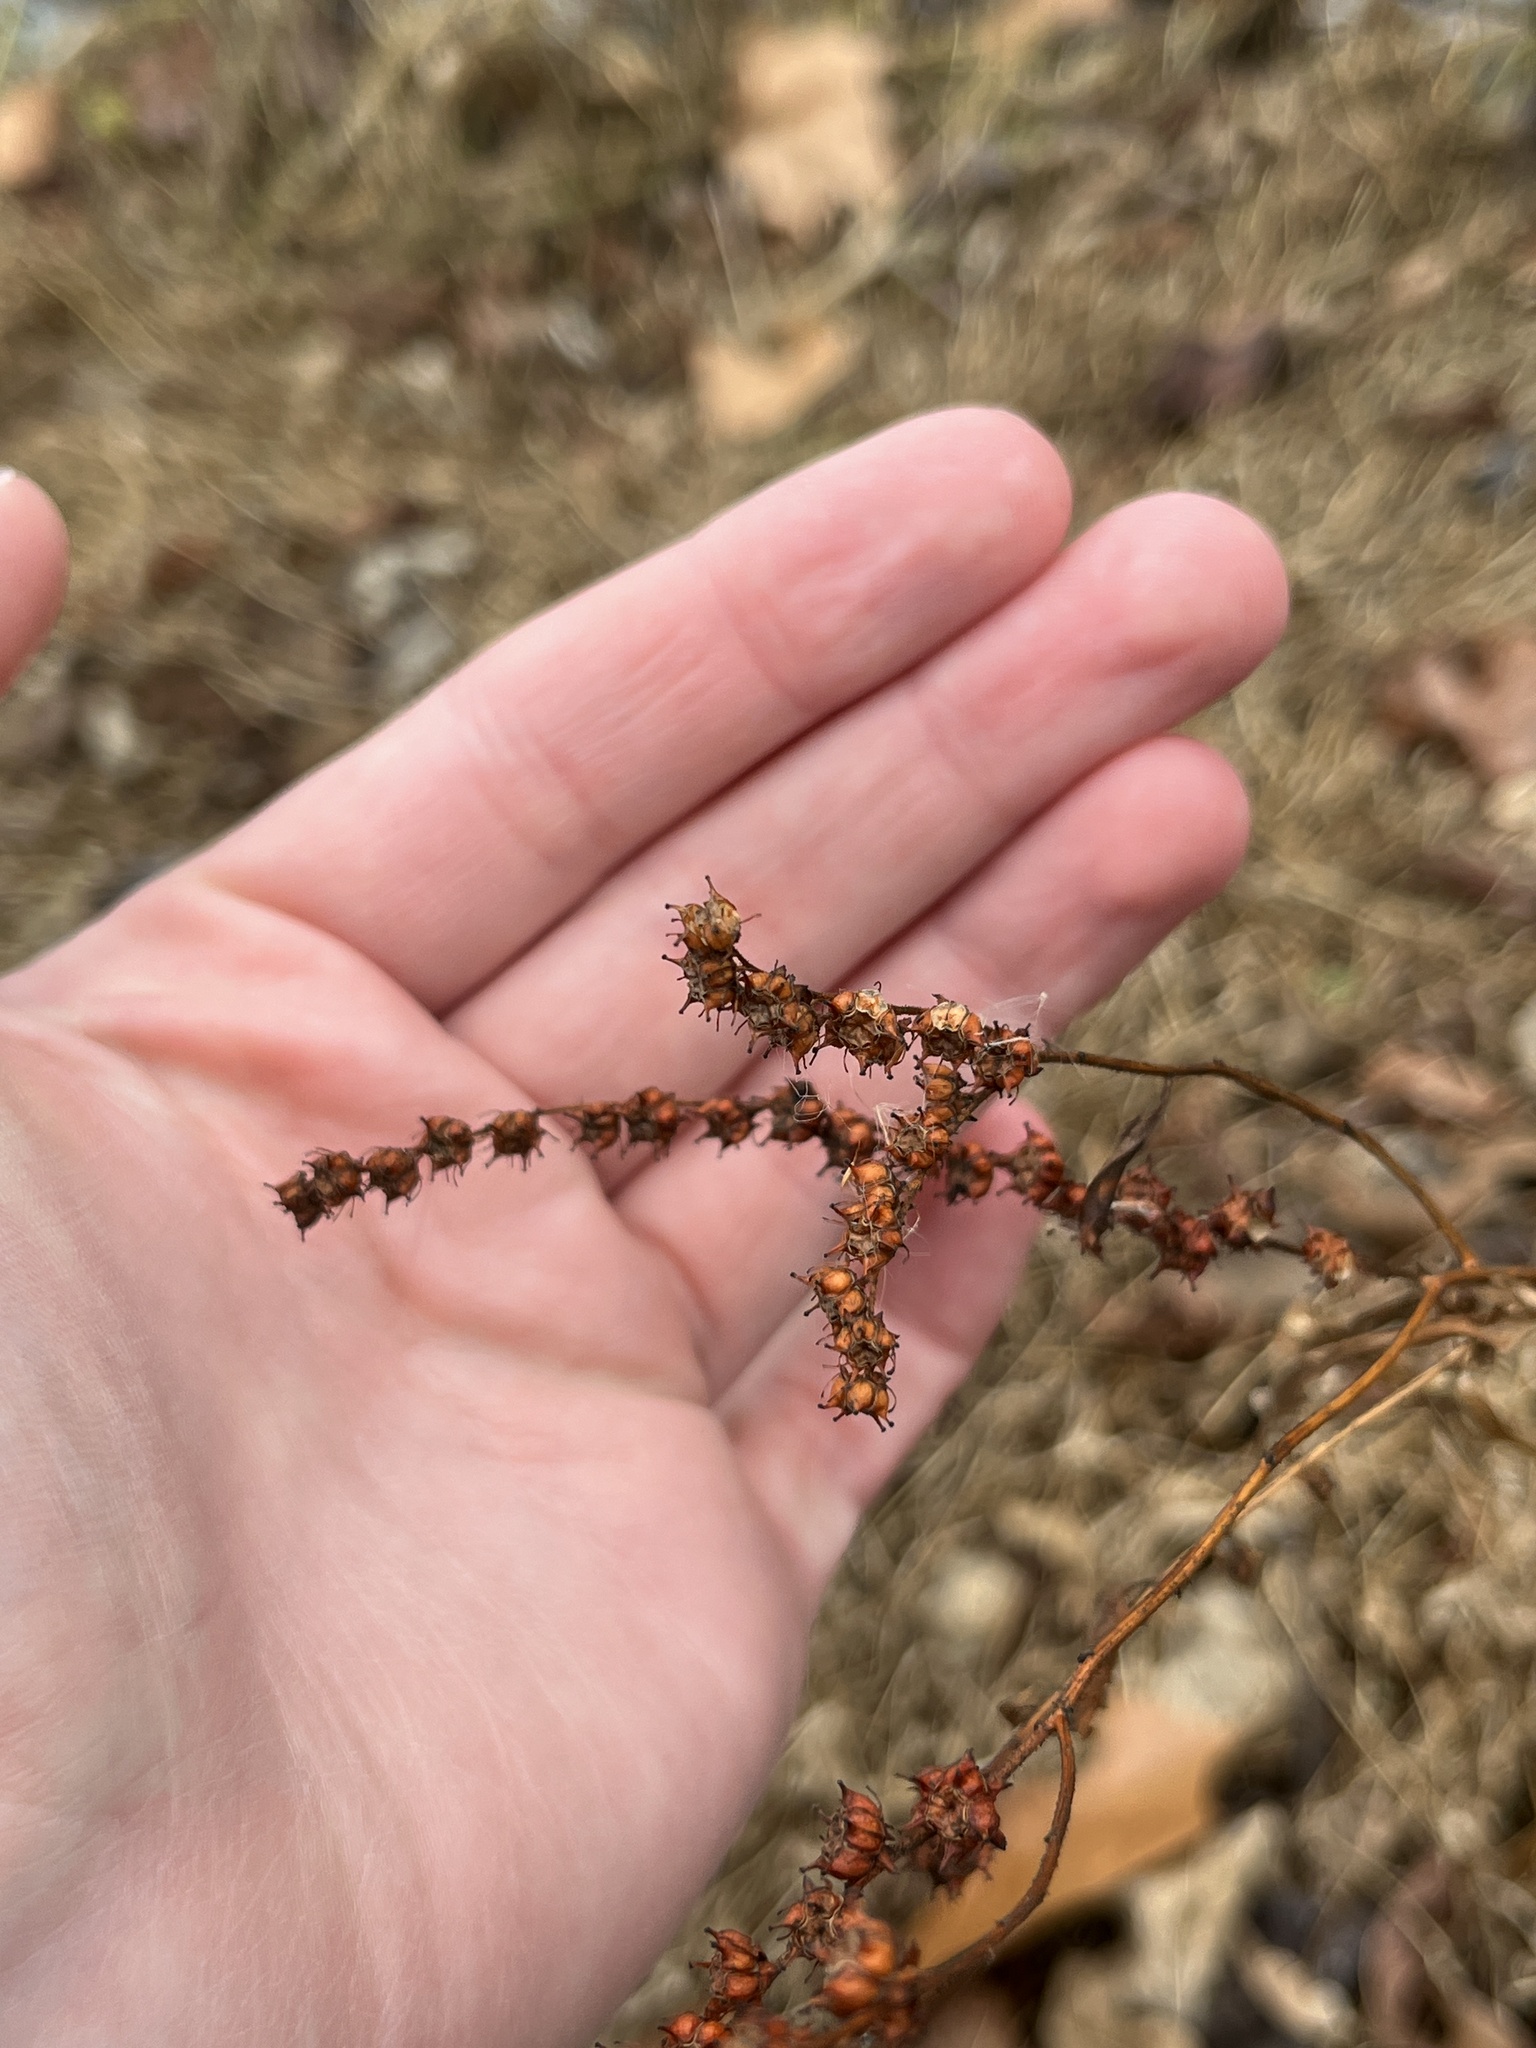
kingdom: Plantae
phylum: Tracheophyta
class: Magnoliopsida
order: Saxifragales
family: Penthoraceae
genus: Penthorum
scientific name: Penthorum sedoides
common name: Ditch stonecrop
